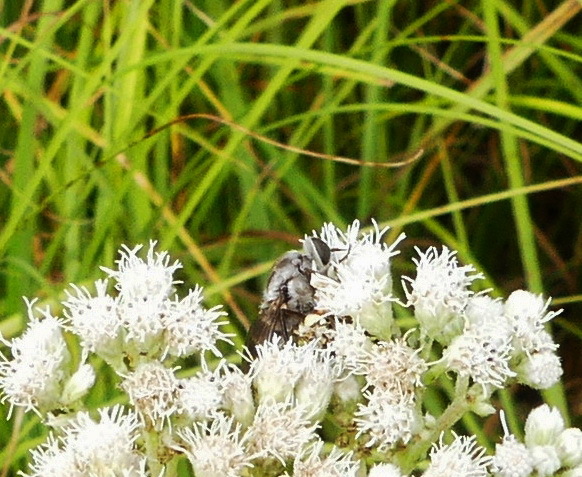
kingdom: Animalia
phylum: Arthropoda
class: Insecta
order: Diptera
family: Tabanidae
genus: Stonemyia
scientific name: Stonemyia rasa
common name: Shaved horse fly
